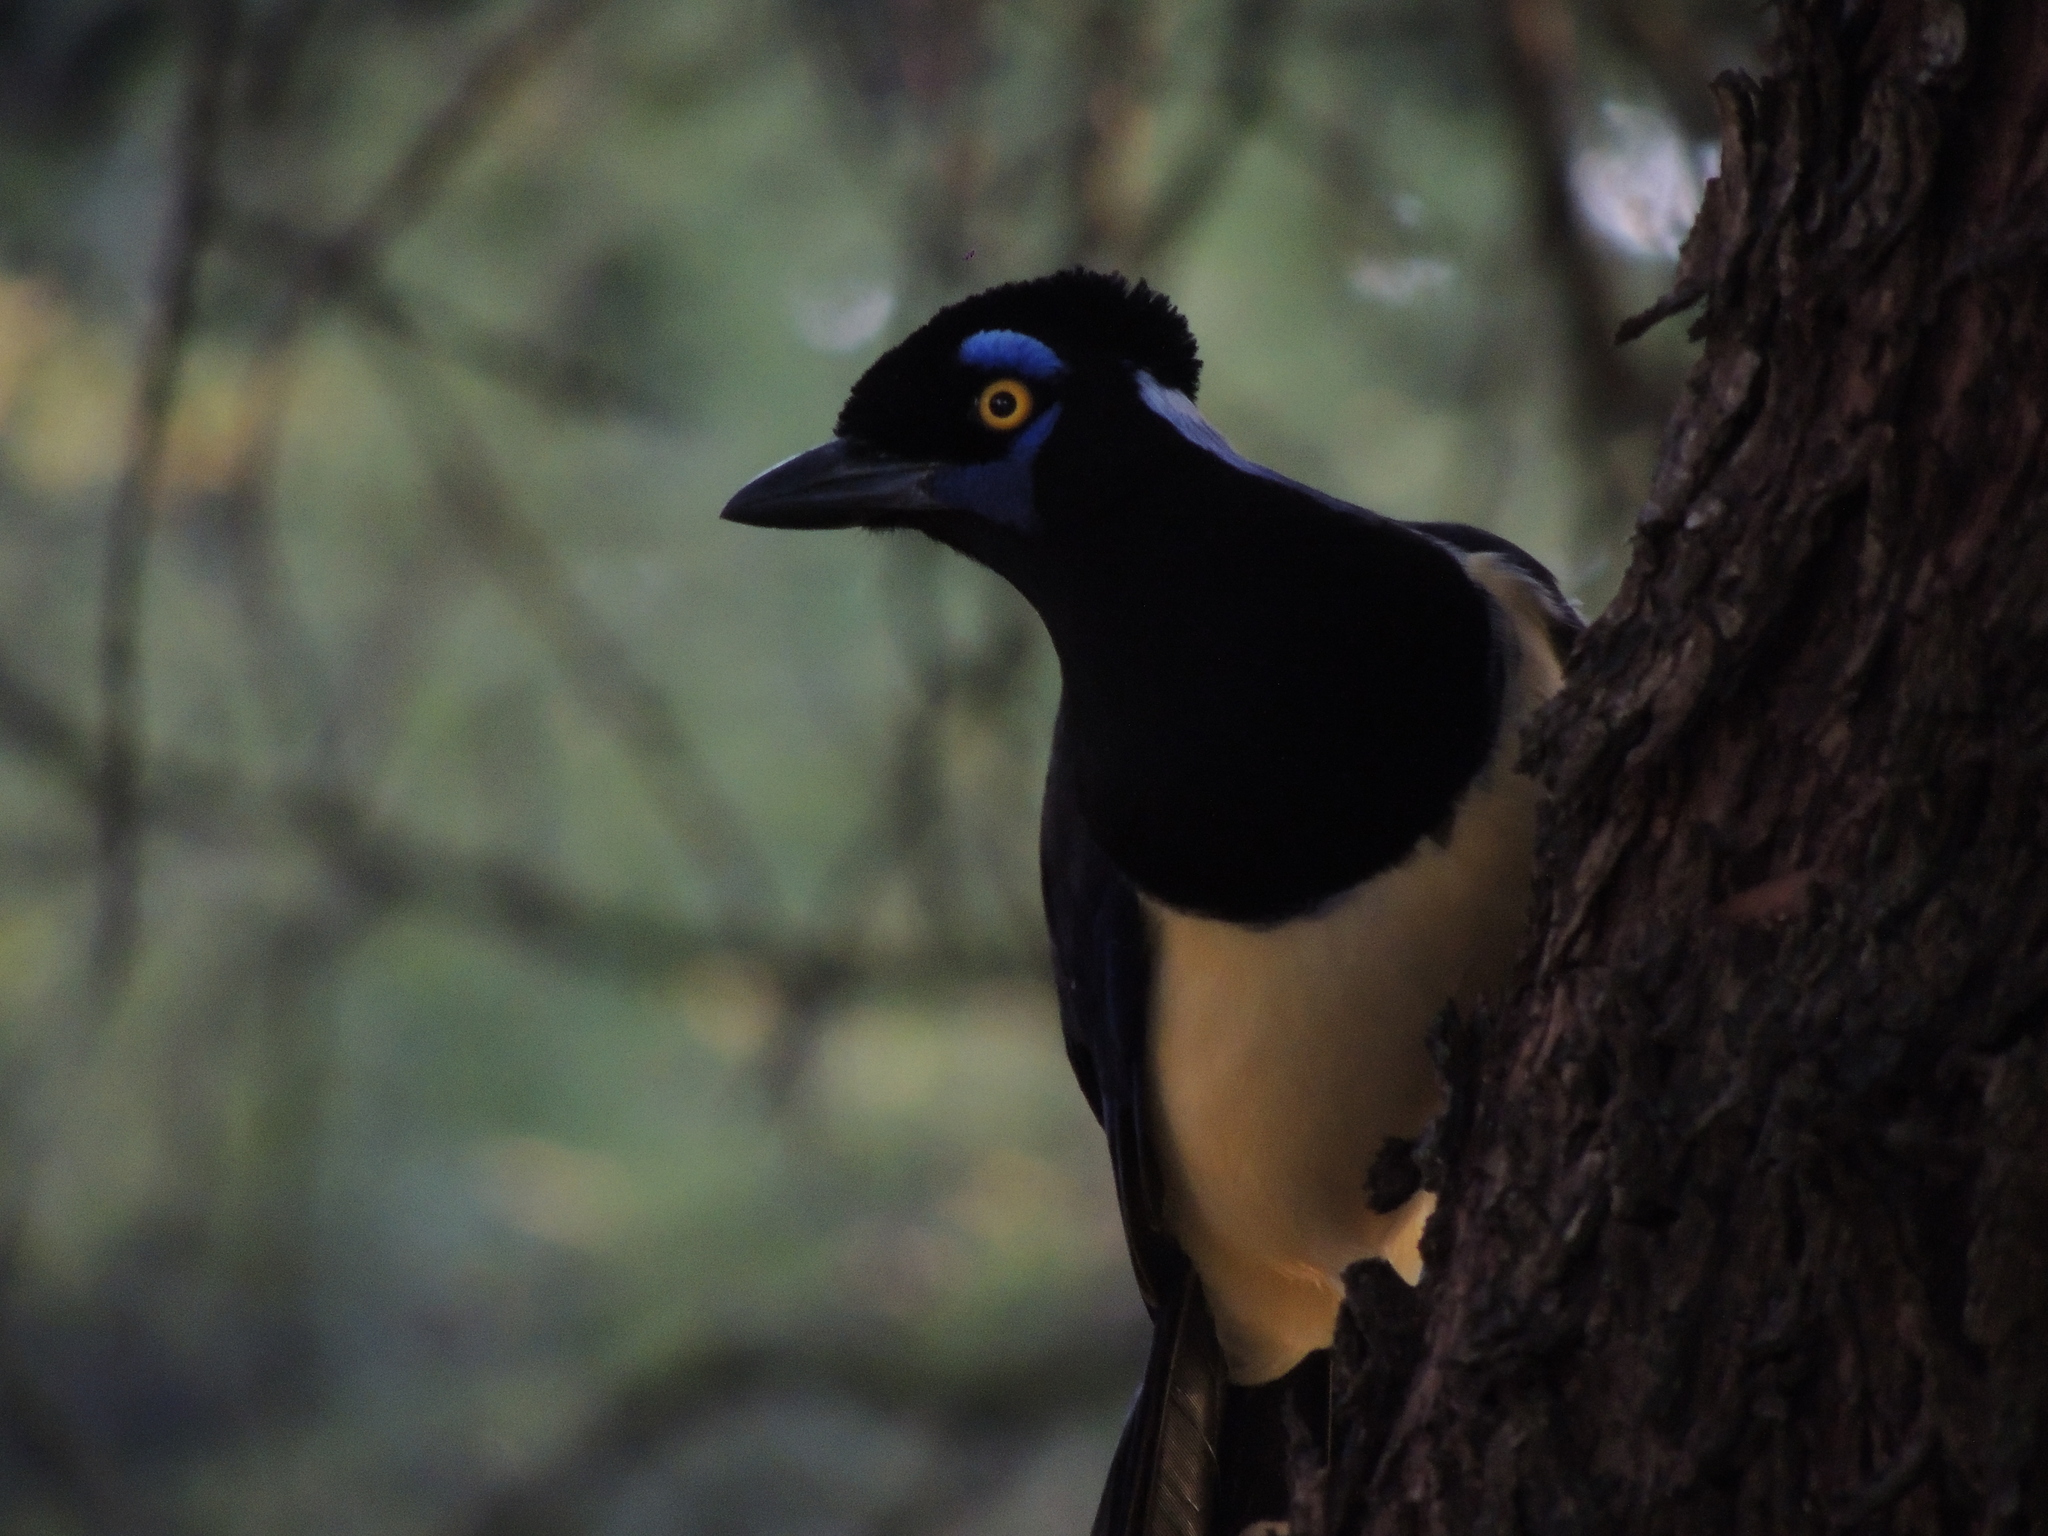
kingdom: Animalia
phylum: Chordata
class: Aves
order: Passeriformes
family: Corvidae
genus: Cyanocorax
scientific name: Cyanocorax chrysops
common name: Plush-crested jay
